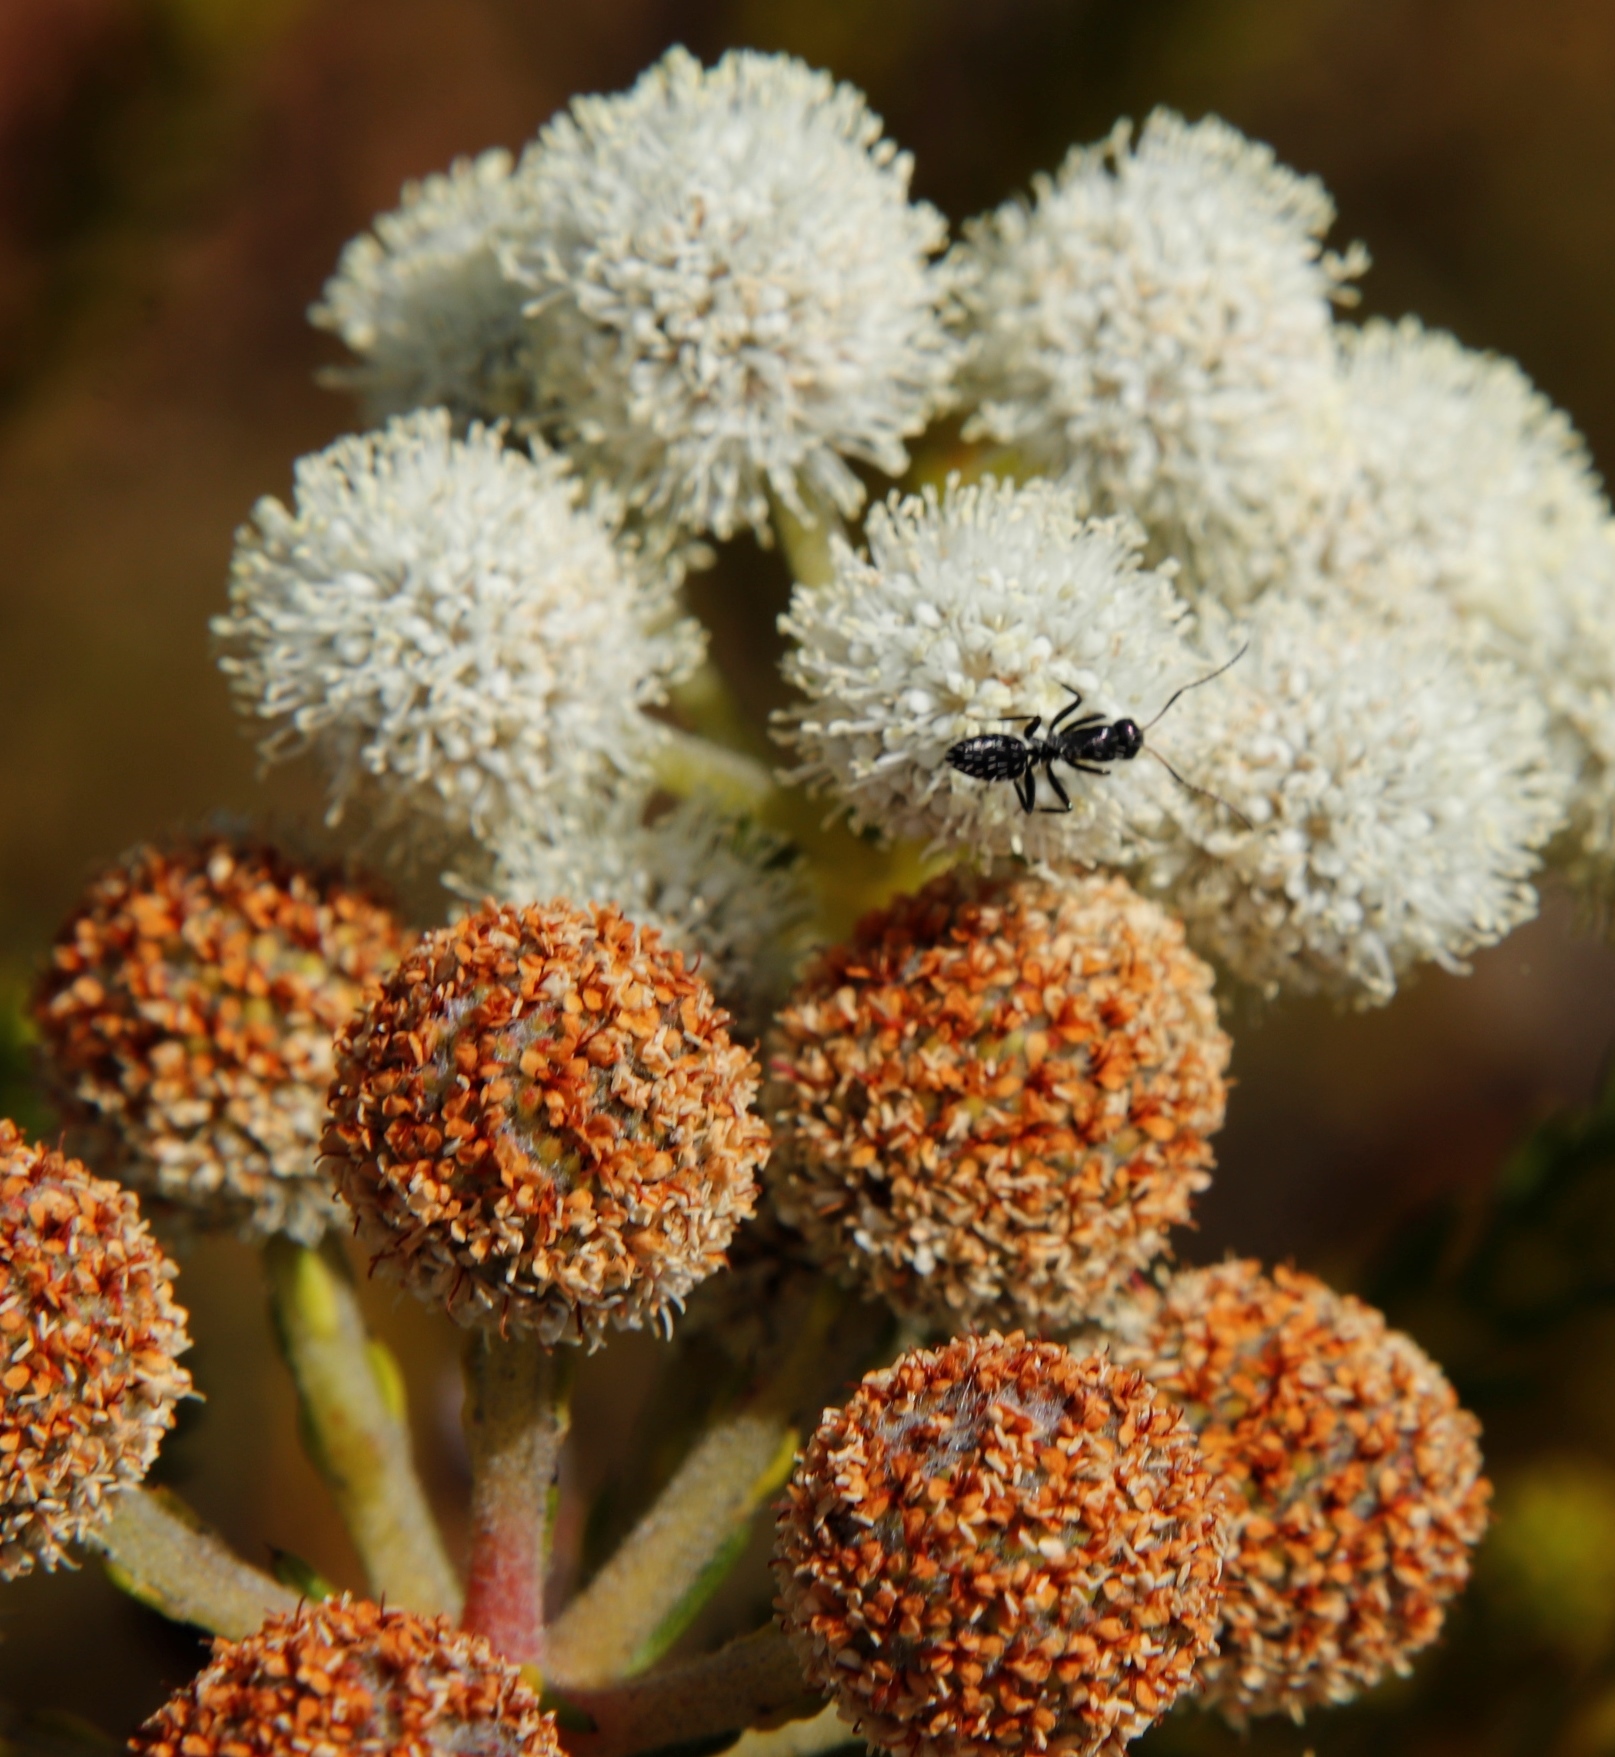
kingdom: Animalia
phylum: Arthropoda
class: Insecta
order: Hymenoptera
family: Formicidae
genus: Camponotus
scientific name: Camponotus niveosetosus
